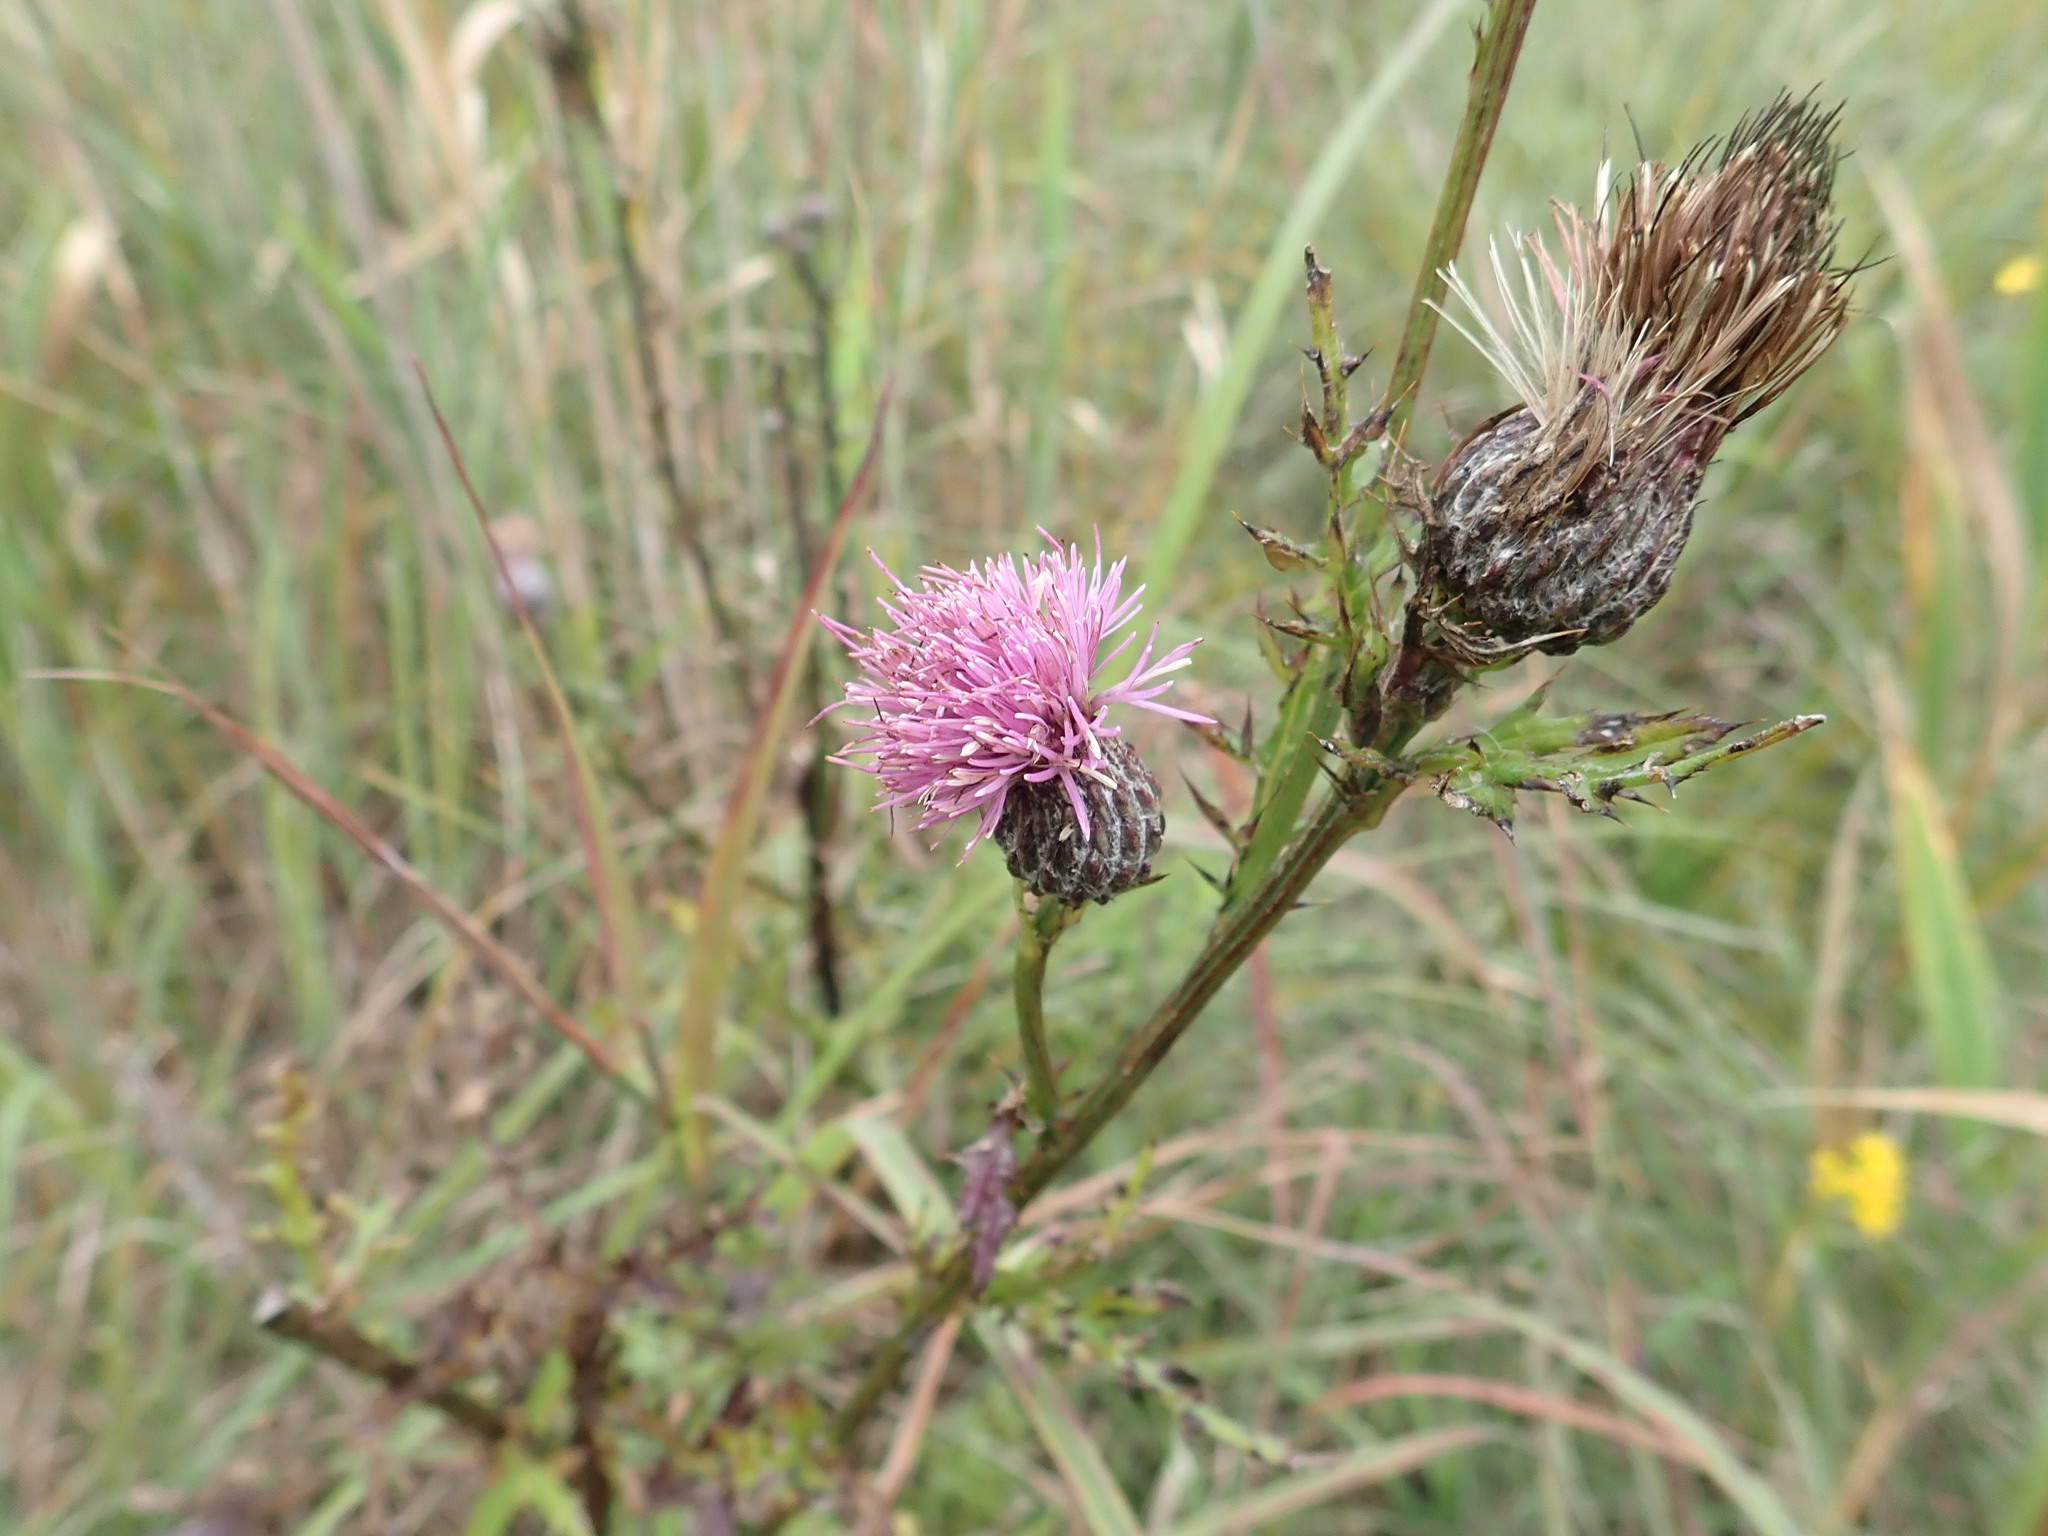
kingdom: Plantae
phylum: Tracheophyta
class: Magnoliopsida
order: Asterales
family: Asteraceae
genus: Cirsium
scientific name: Cirsium muticum
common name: Dunce-nettle
